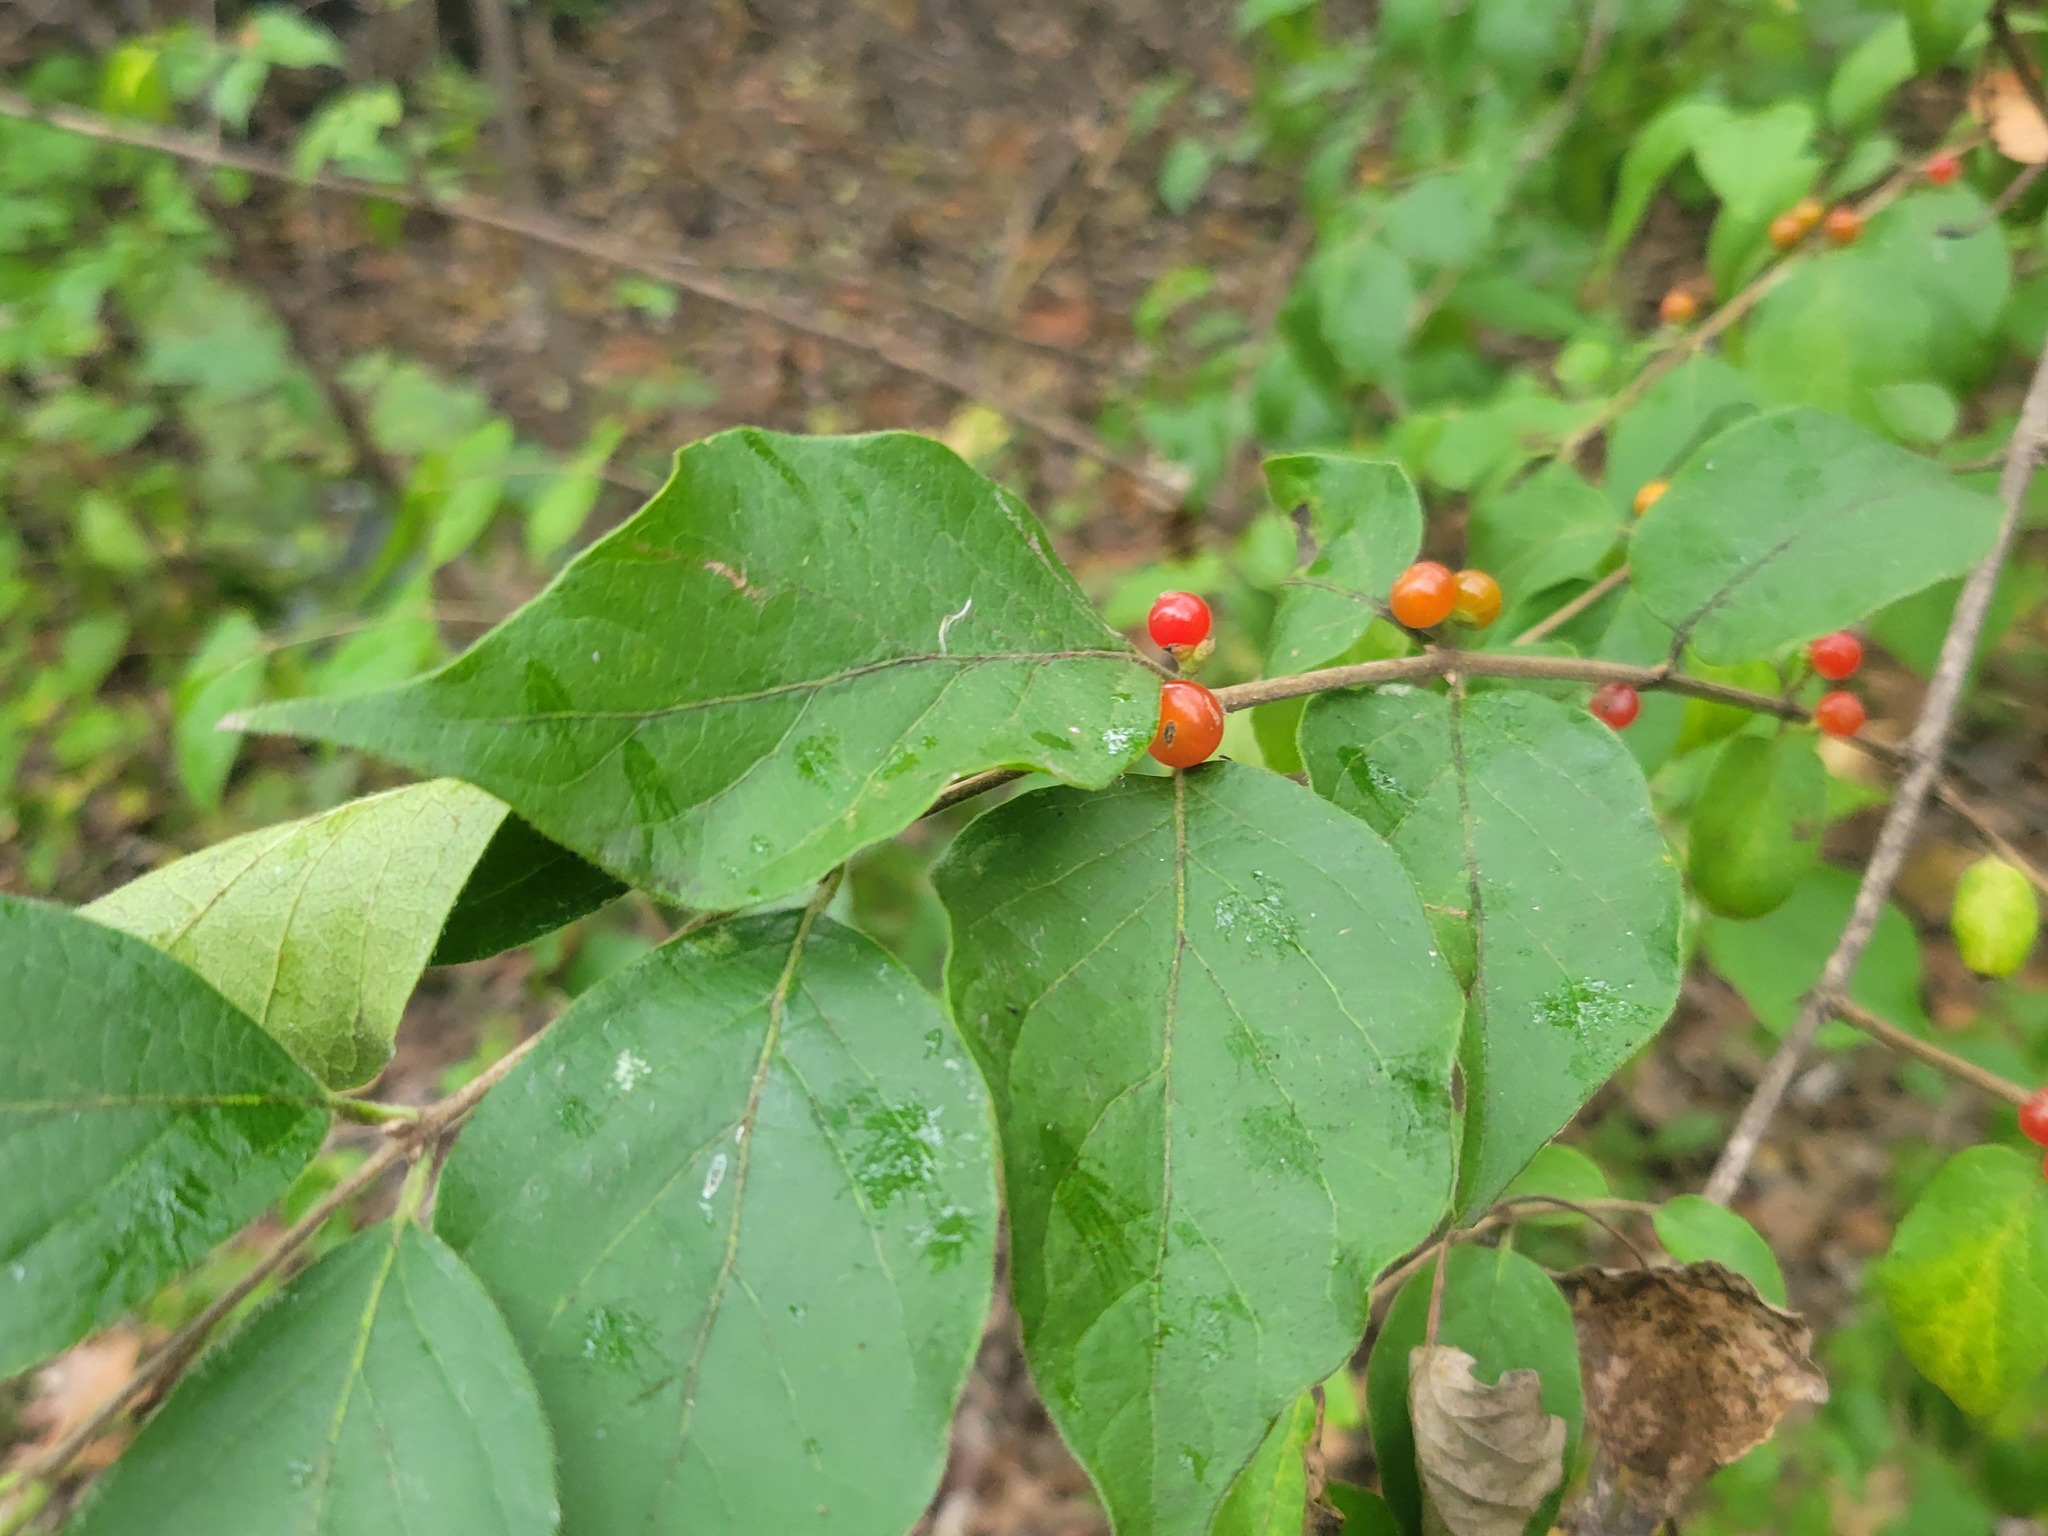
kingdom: Plantae
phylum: Tracheophyta
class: Magnoliopsida
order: Dipsacales
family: Caprifoliaceae
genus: Lonicera
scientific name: Lonicera maackii
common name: Amur honeysuckle
